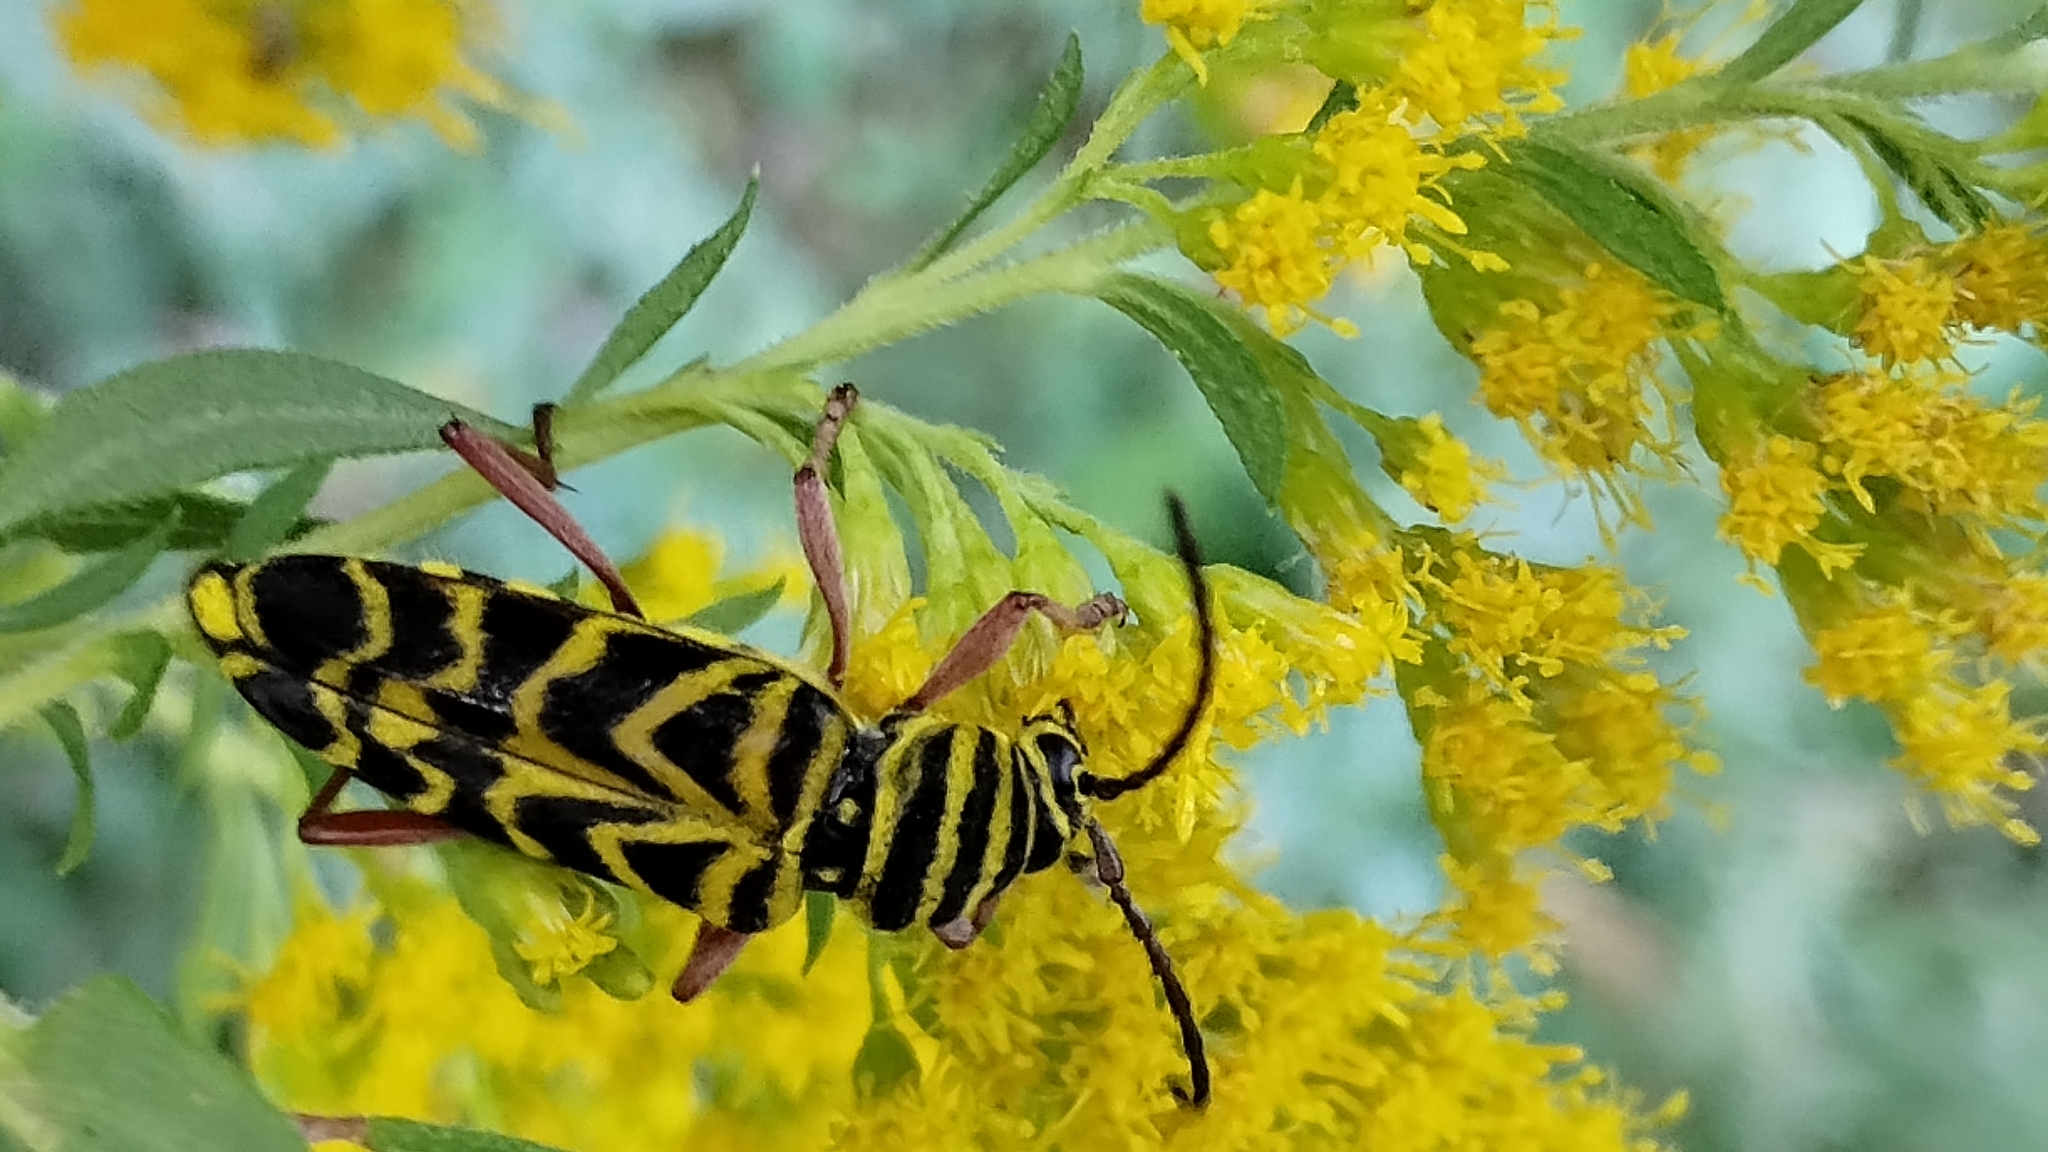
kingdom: Animalia
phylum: Arthropoda
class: Insecta
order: Coleoptera
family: Cerambycidae
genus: Megacyllene
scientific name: Megacyllene robiniae
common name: Locust borer
